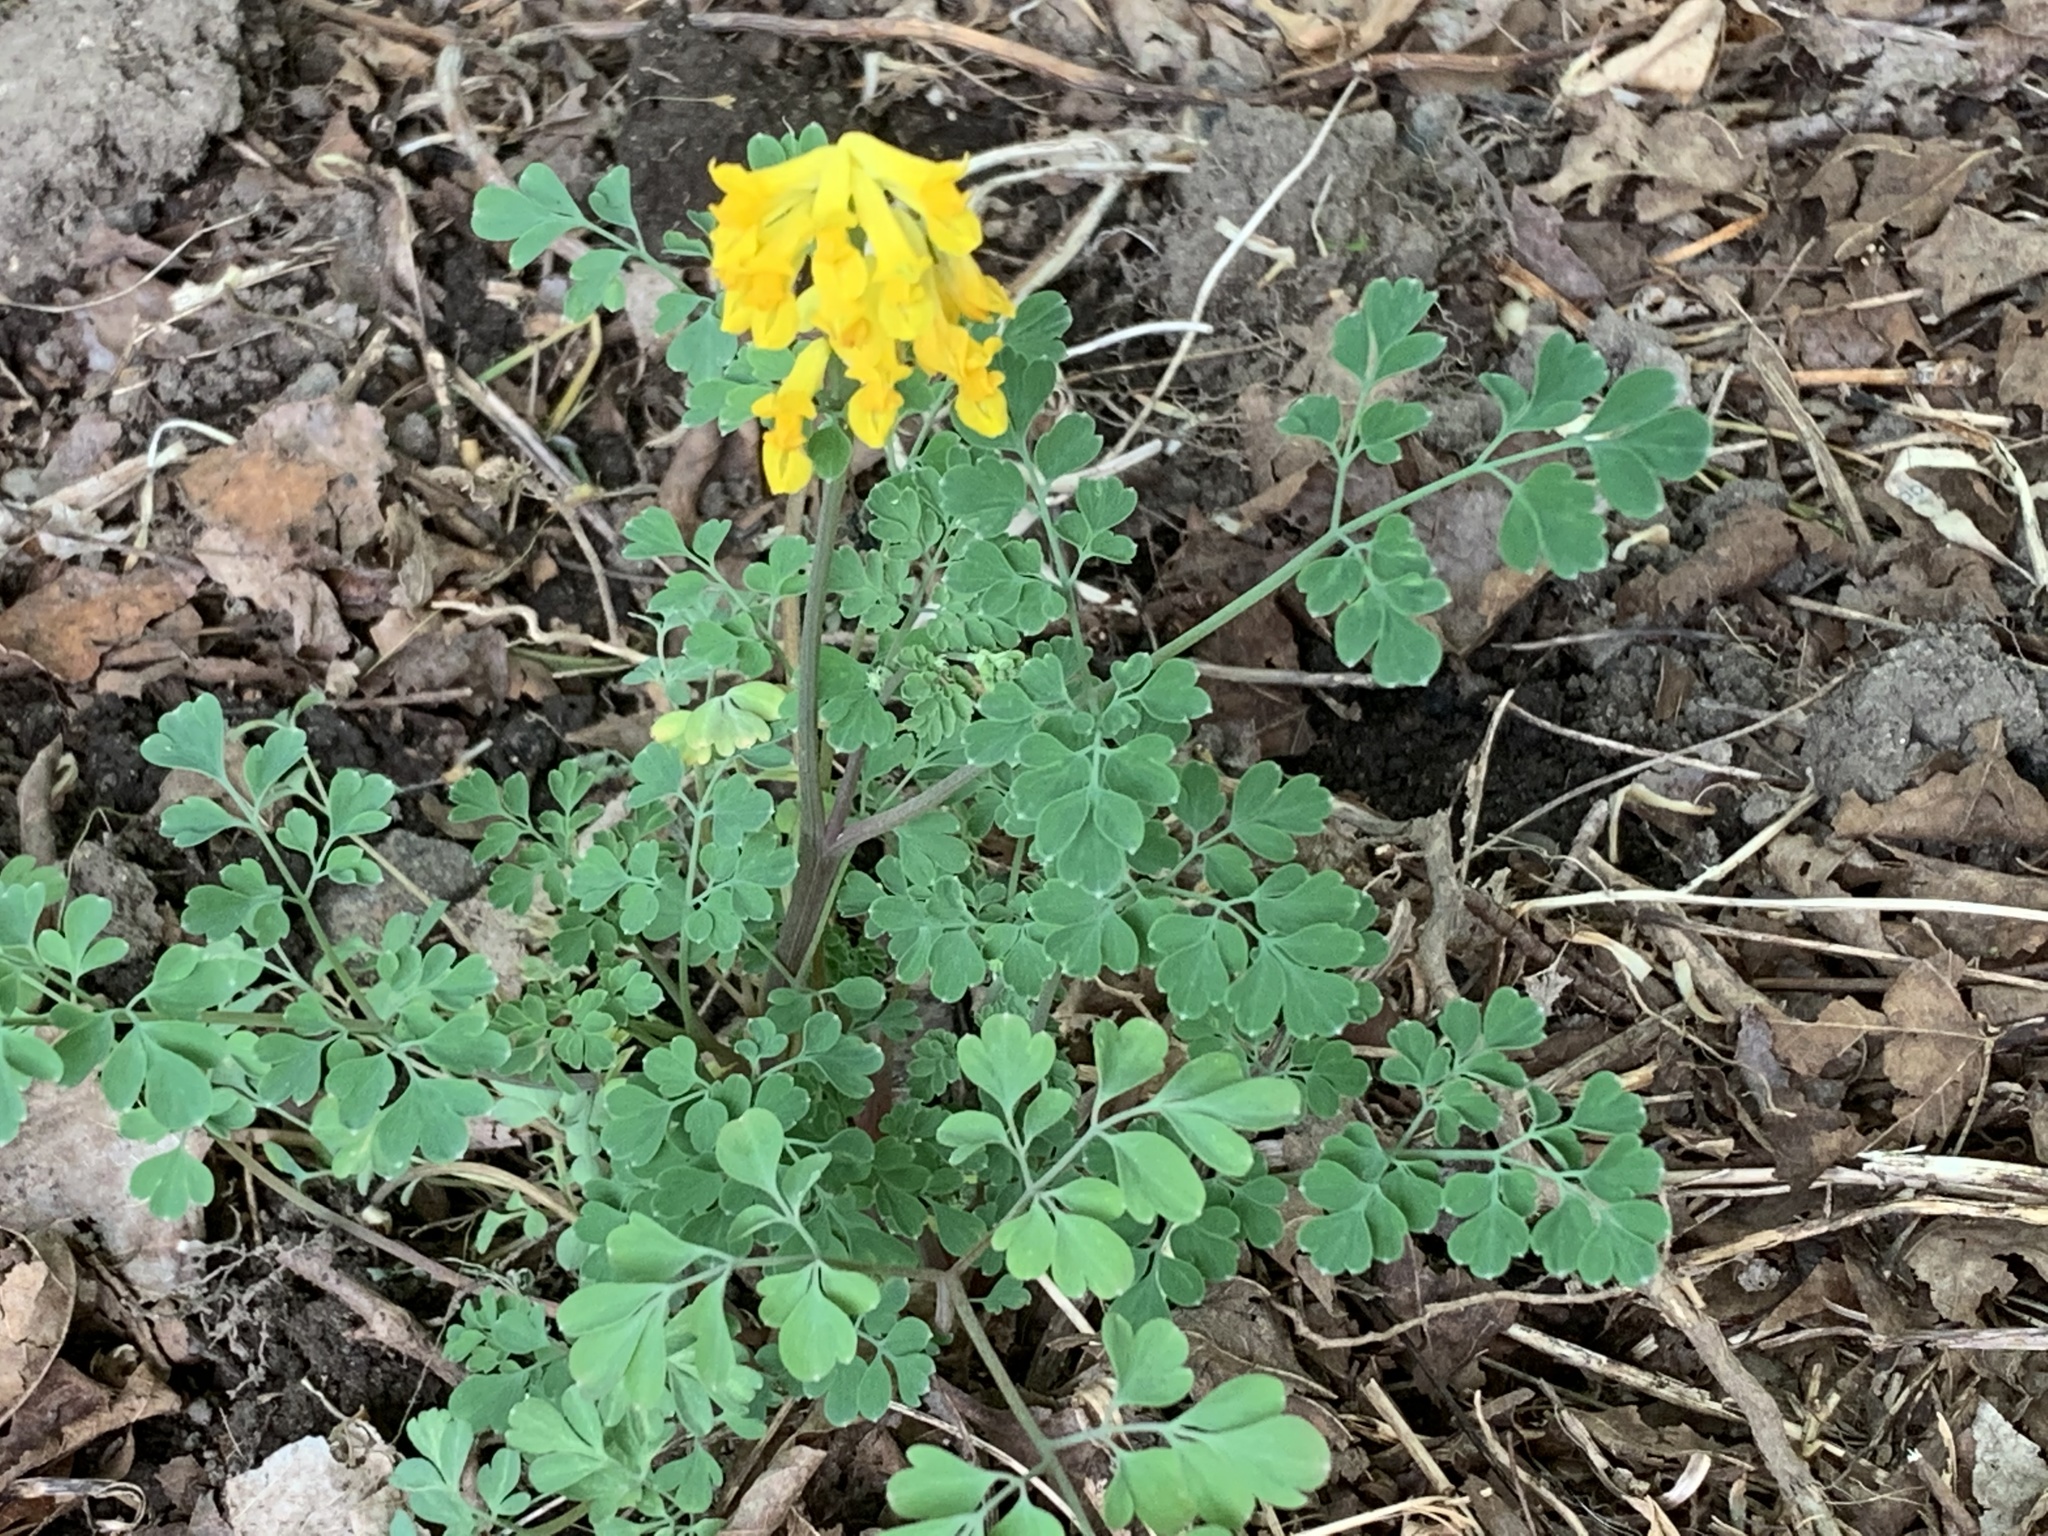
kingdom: Plantae
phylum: Tracheophyta
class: Magnoliopsida
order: Ranunculales
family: Papaveraceae
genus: Pseudofumaria
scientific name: Pseudofumaria lutea
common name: Yellow corydalis
